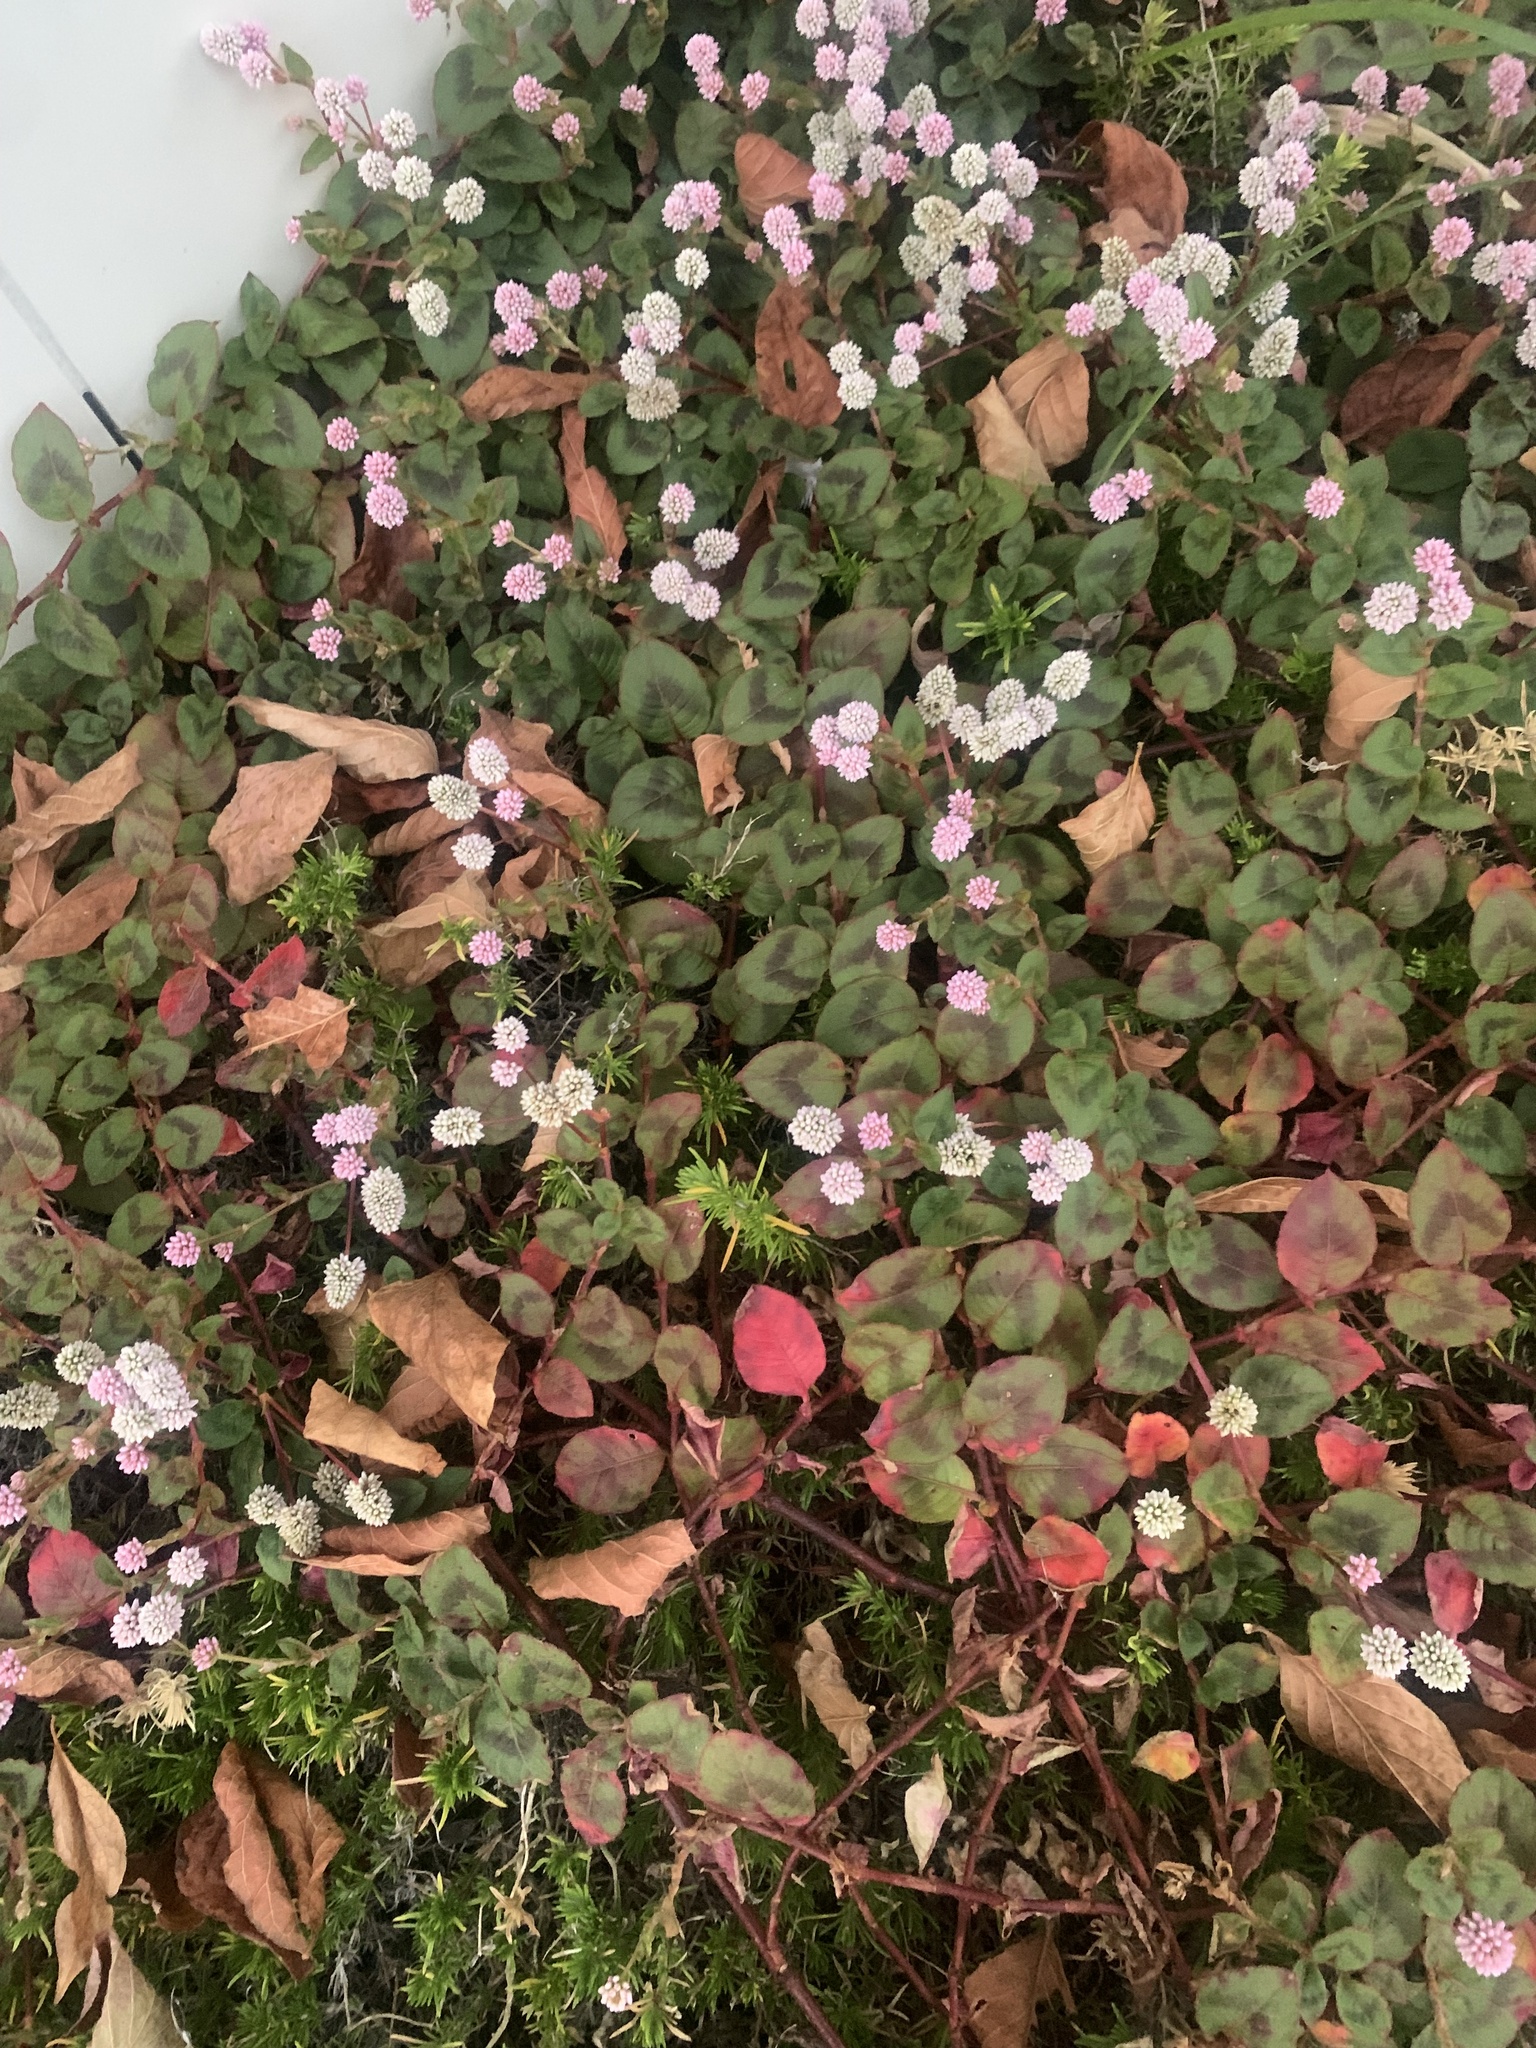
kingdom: Plantae
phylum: Tracheophyta
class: Magnoliopsida
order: Caryophyllales
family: Polygonaceae
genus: Persicaria
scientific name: Persicaria capitata
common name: Pinkhead smartweed
